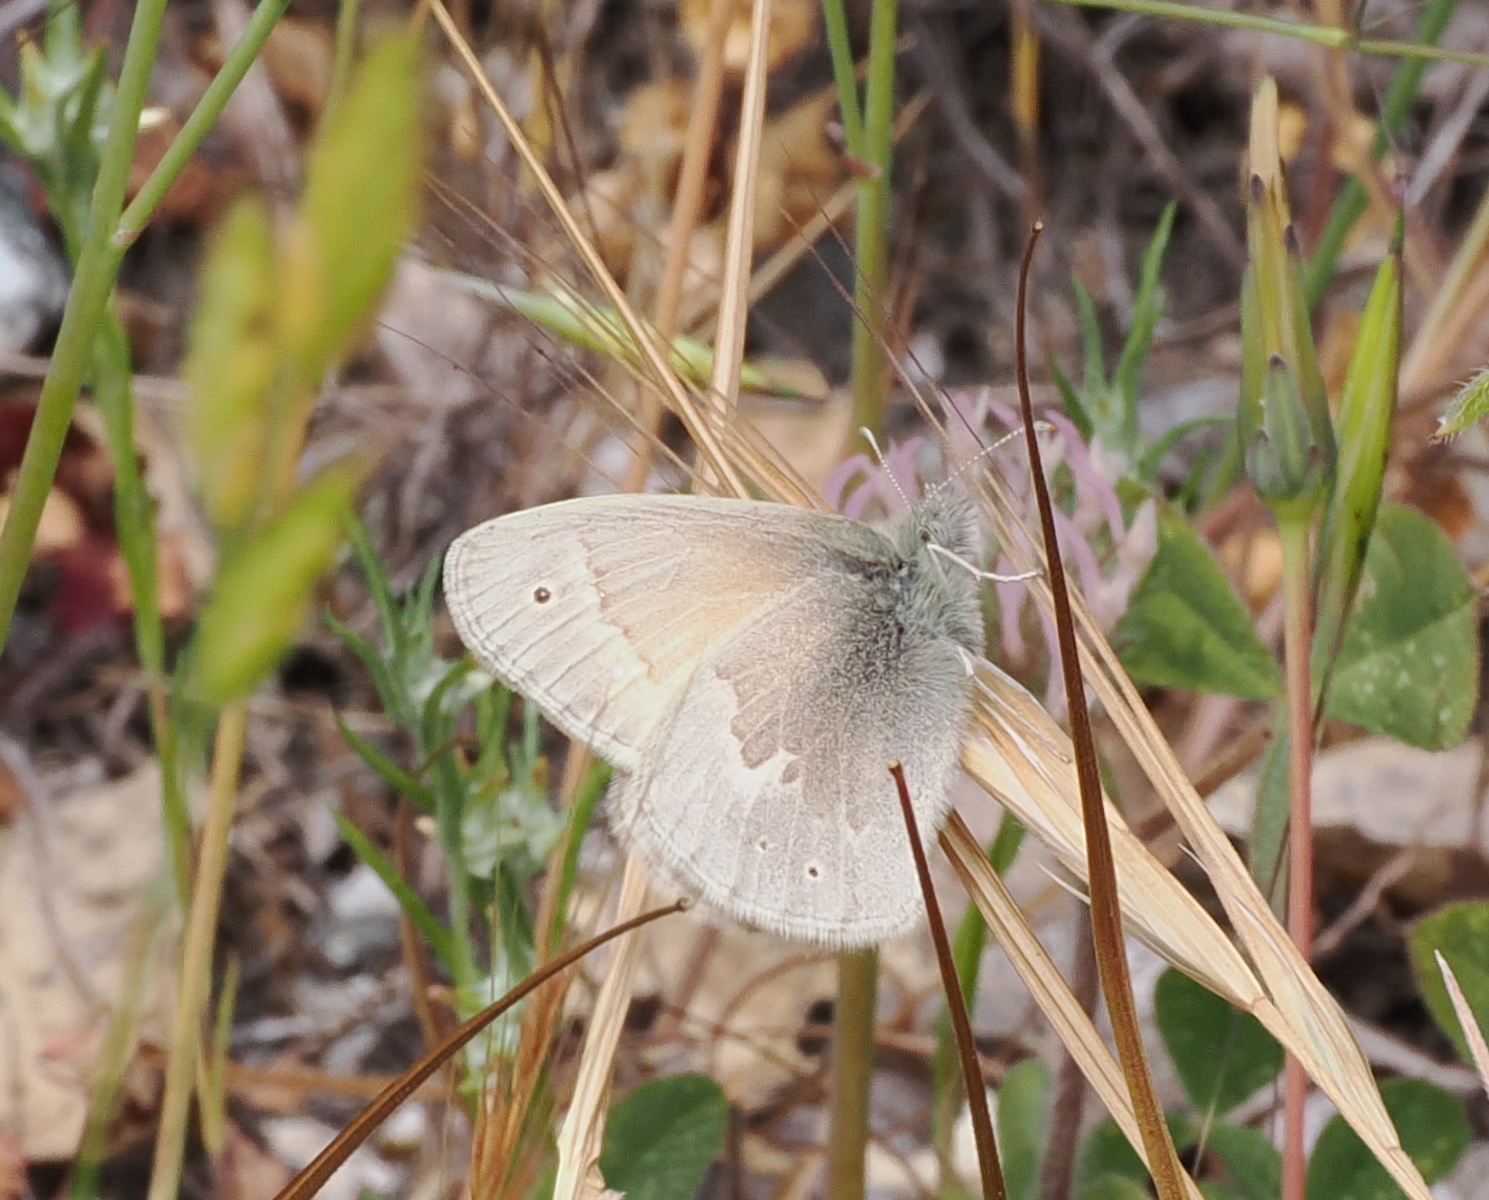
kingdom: Animalia
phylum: Arthropoda
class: Insecta
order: Lepidoptera
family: Nymphalidae
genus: Coenonympha
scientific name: Coenonympha california
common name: Common ringlet
